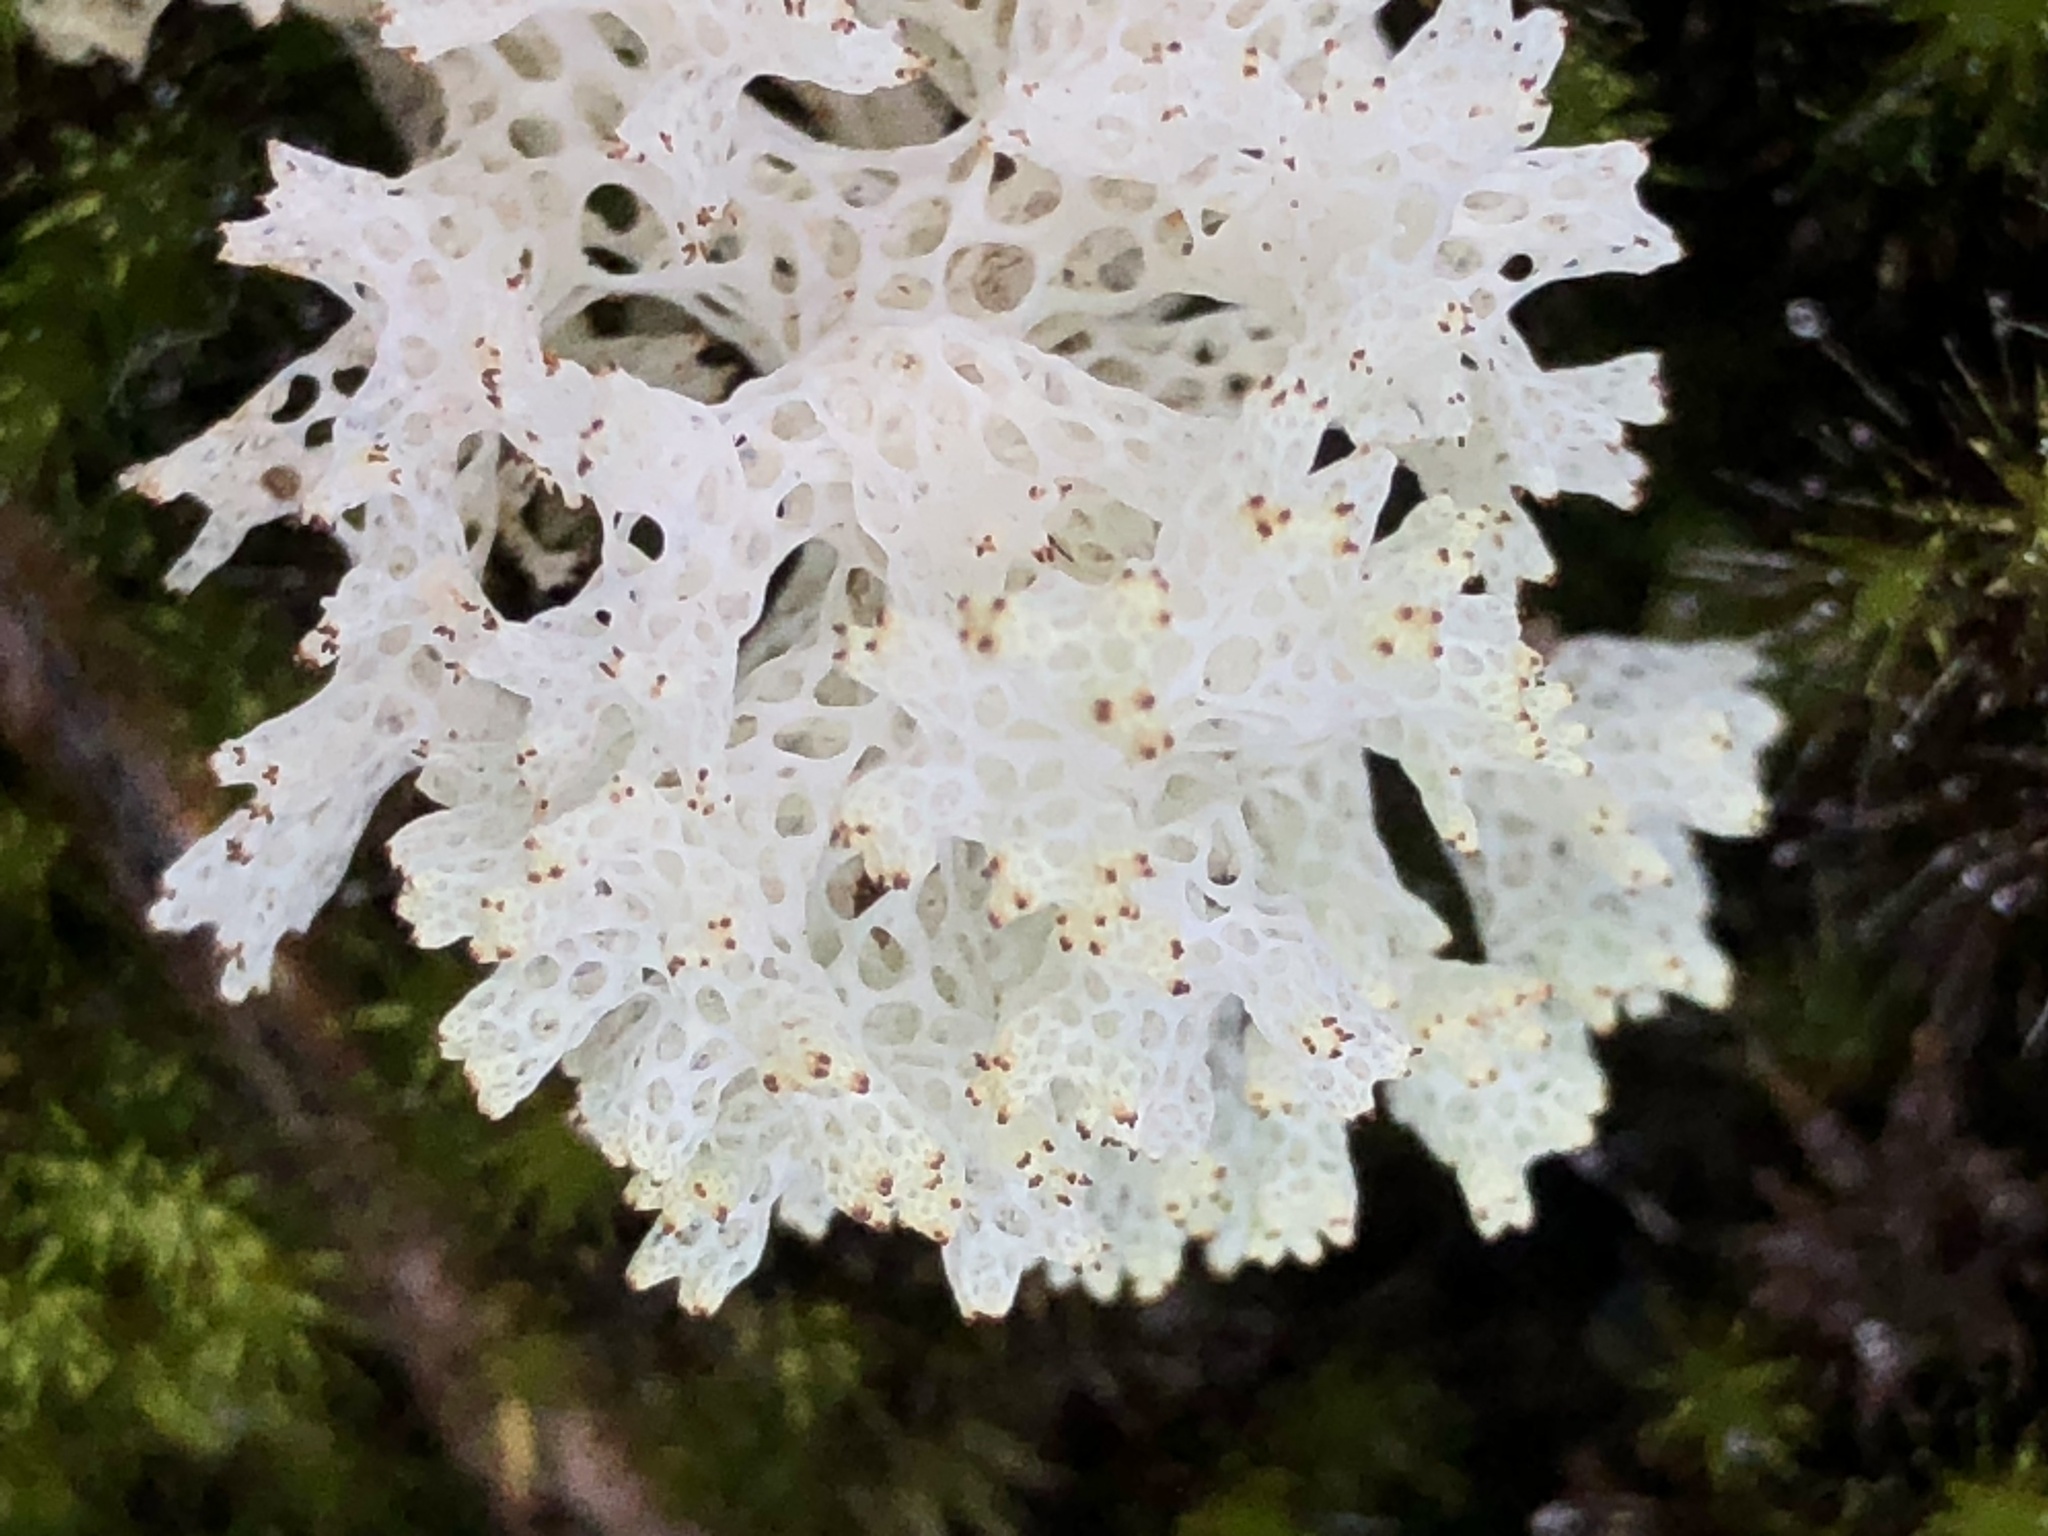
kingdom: Fungi
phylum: Ascomycota
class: Lecanoromycetes
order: Lecanorales
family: Cladoniaceae
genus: Pulchrocladia
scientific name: Pulchrocladia retipora
